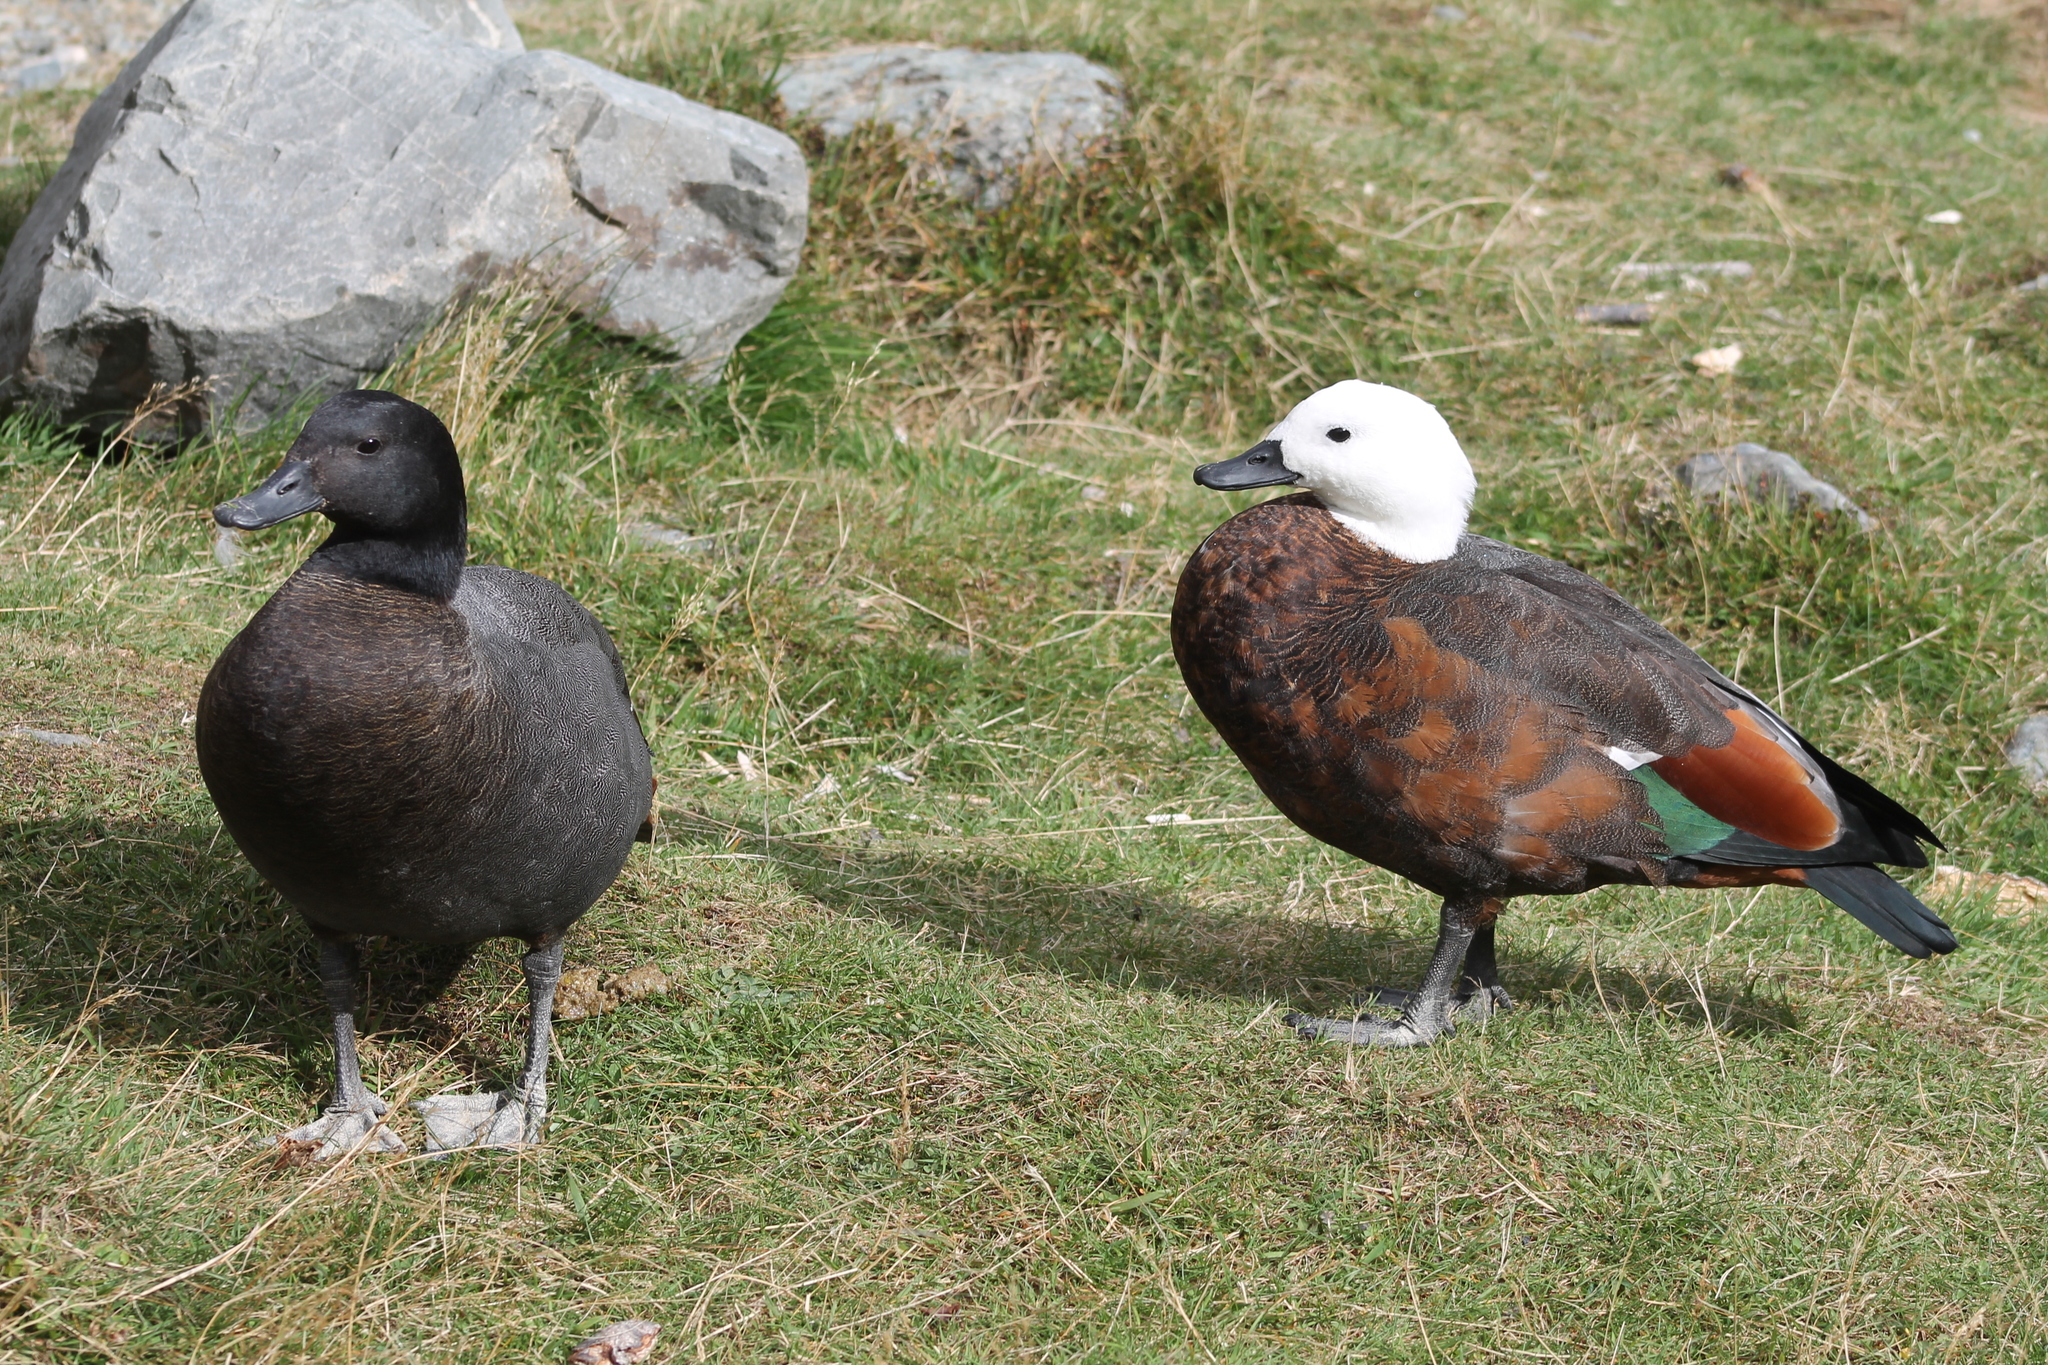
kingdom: Animalia
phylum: Chordata
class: Aves
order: Anseriformes
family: Anatidae
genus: Tadorna
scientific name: Tadorna variegata
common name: Paradise shelduck
